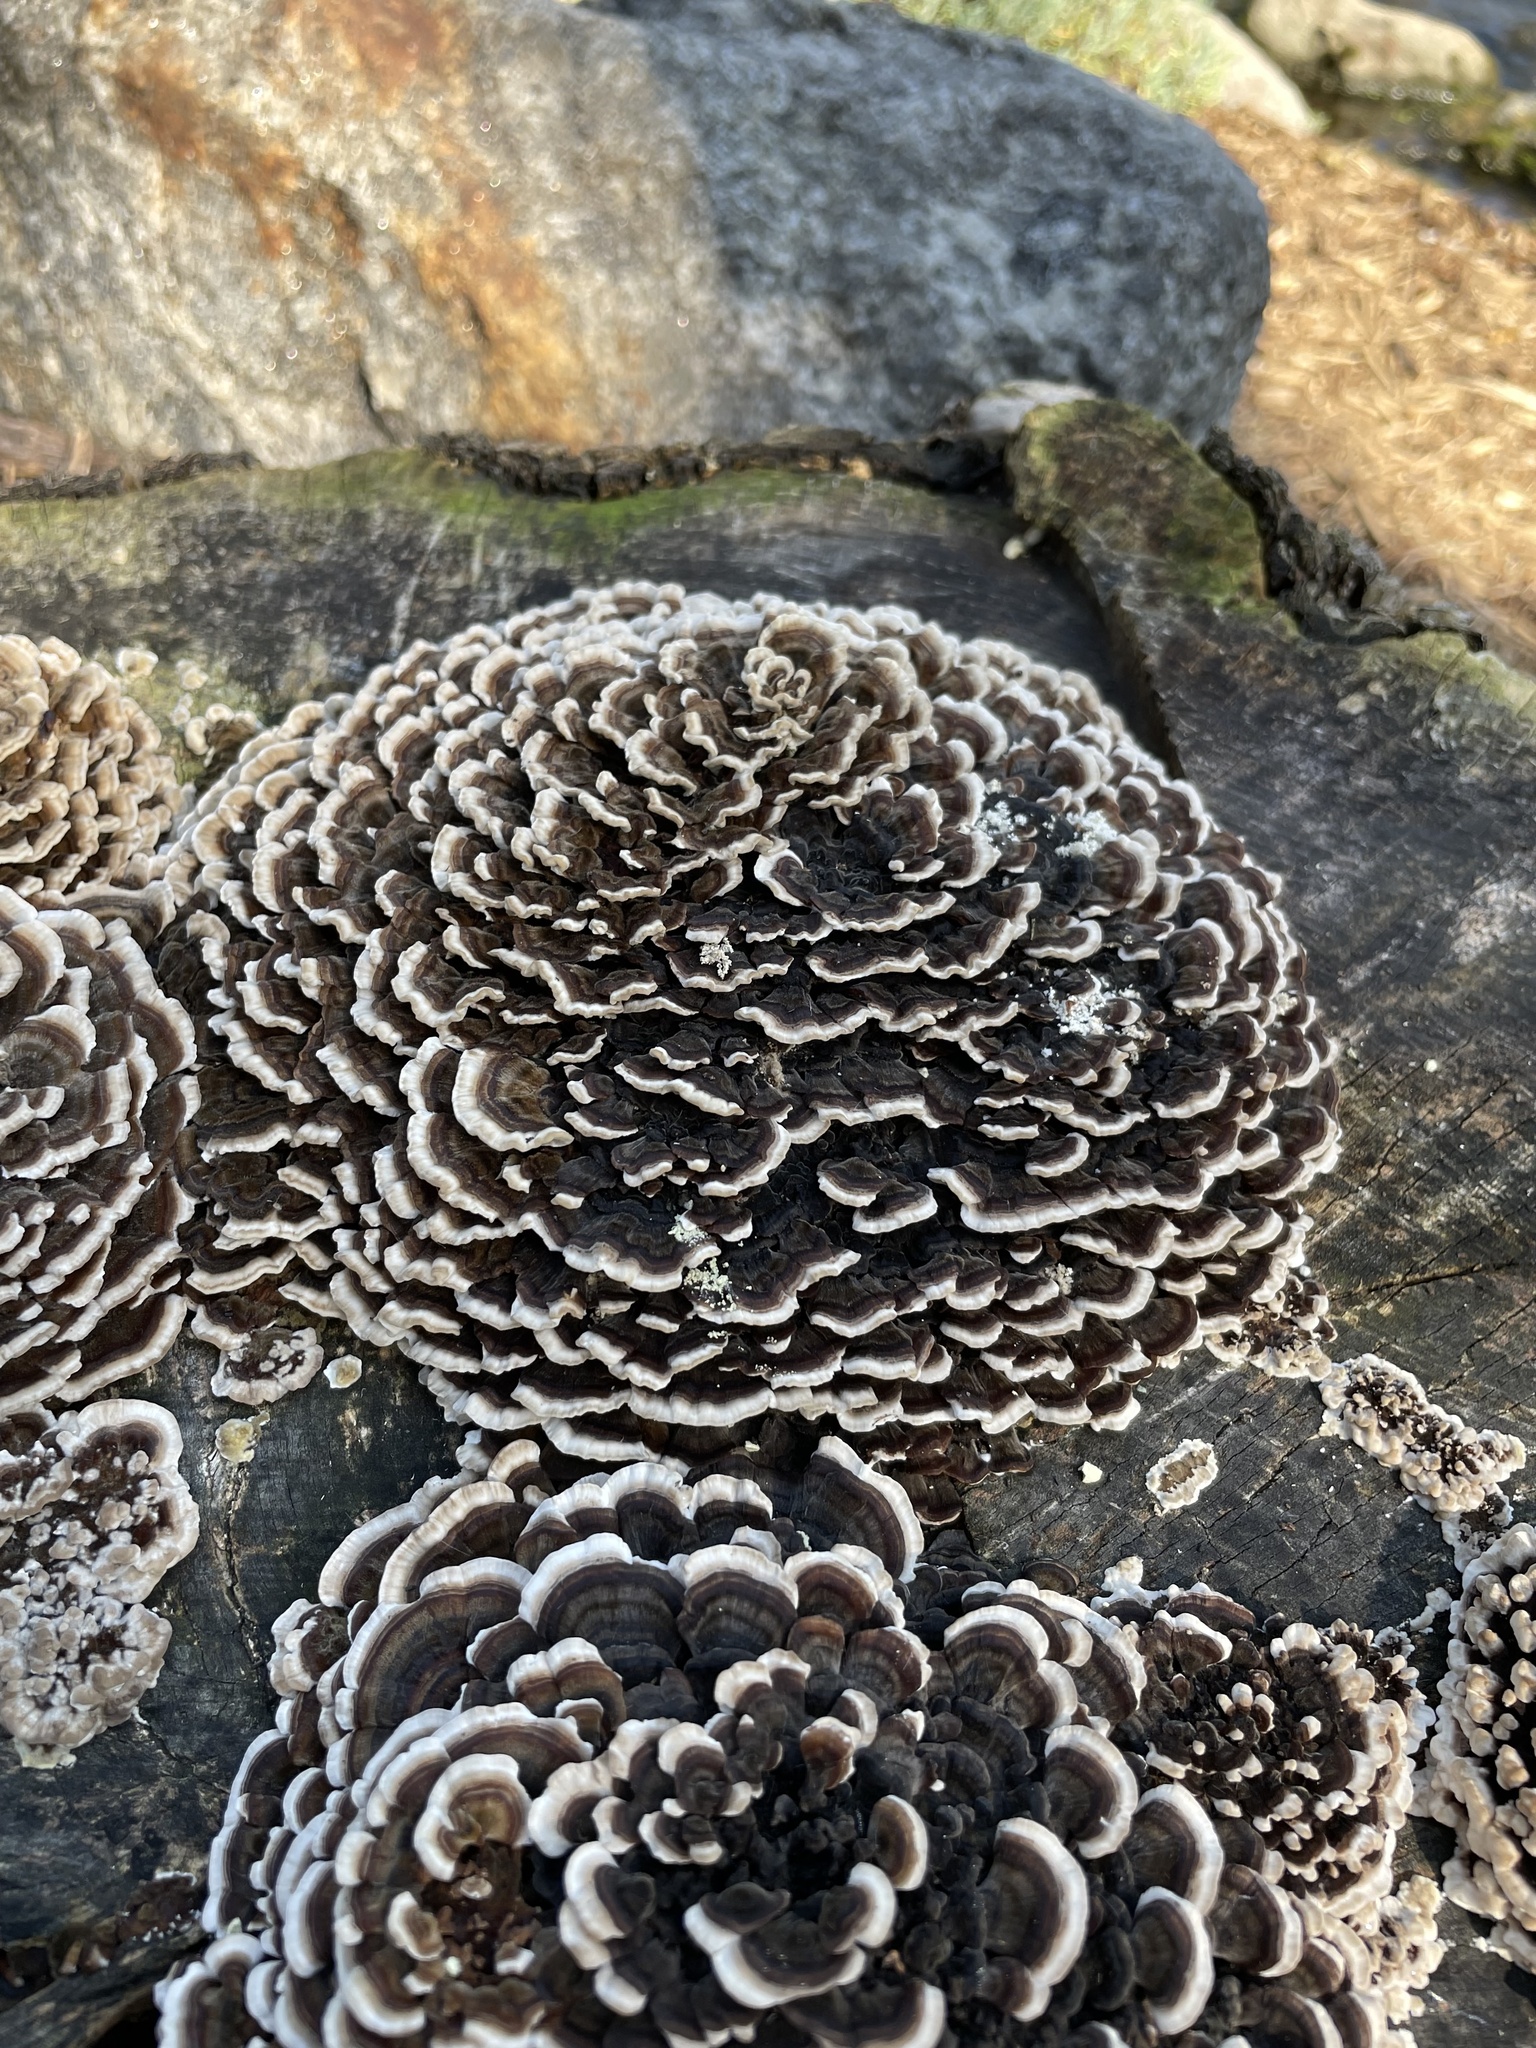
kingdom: Fungi
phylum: Basidiomycota
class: Agaricomycetes
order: Polyporales
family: Polyporaceae
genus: Trametes
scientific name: Trametes versicolor
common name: Turkeytail
